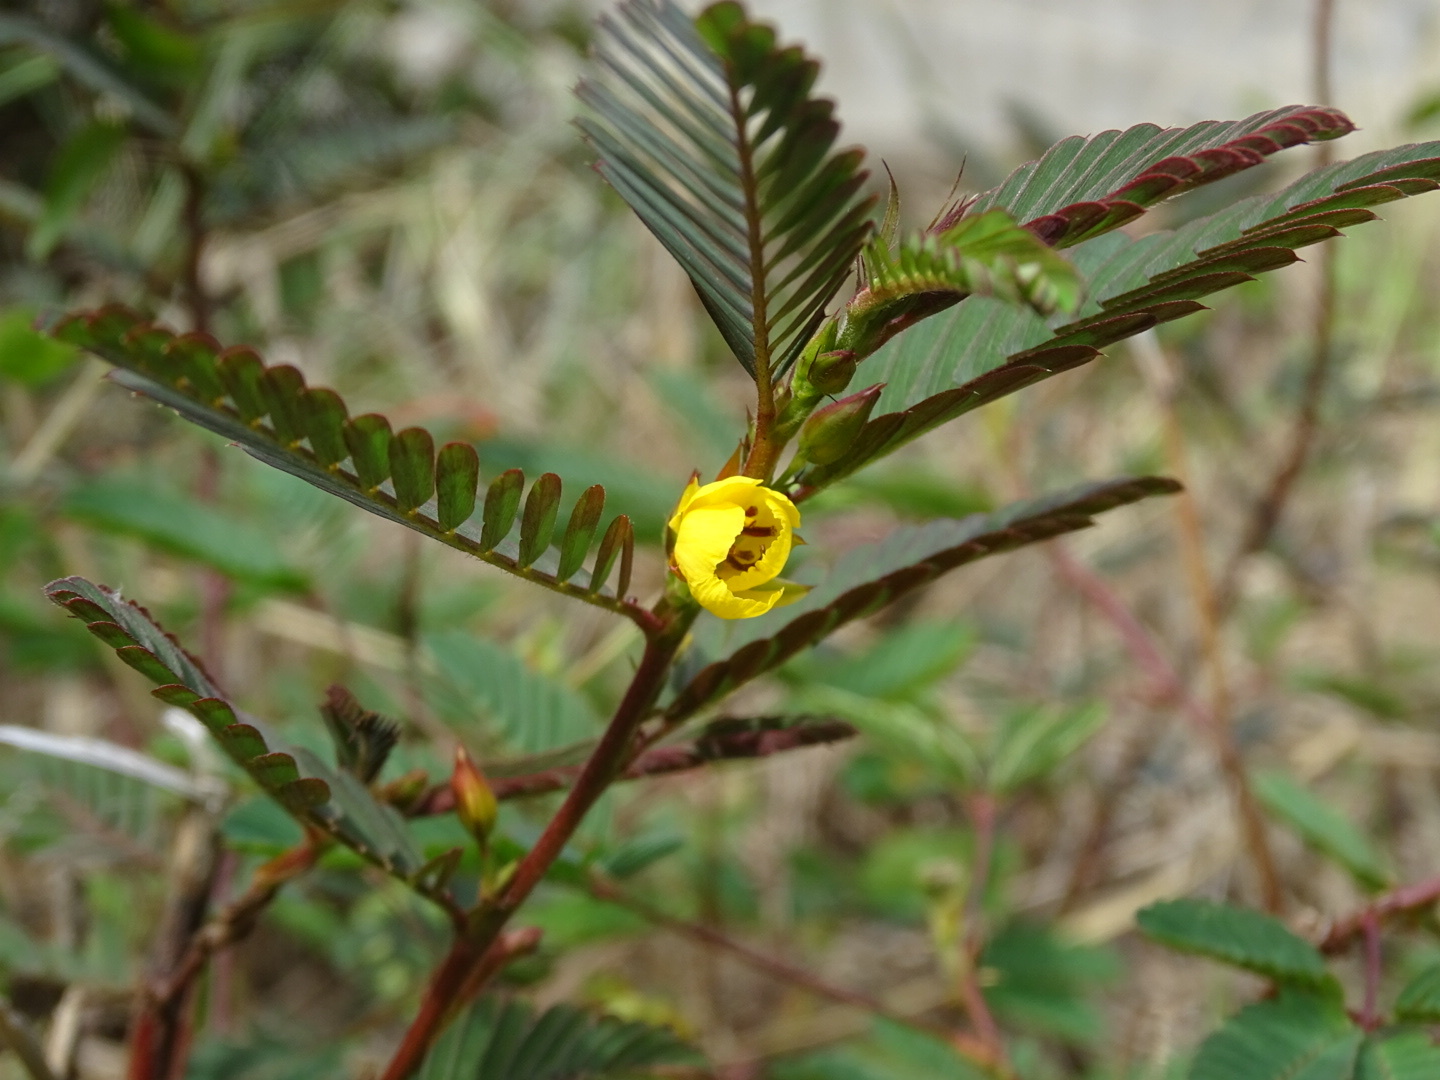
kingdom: Plantae
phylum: Tracheophyta
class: Magnoliopsida
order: Fabales
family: Fabaceae
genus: Chamaecrista
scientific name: Chamaecrista leschenaultiana
